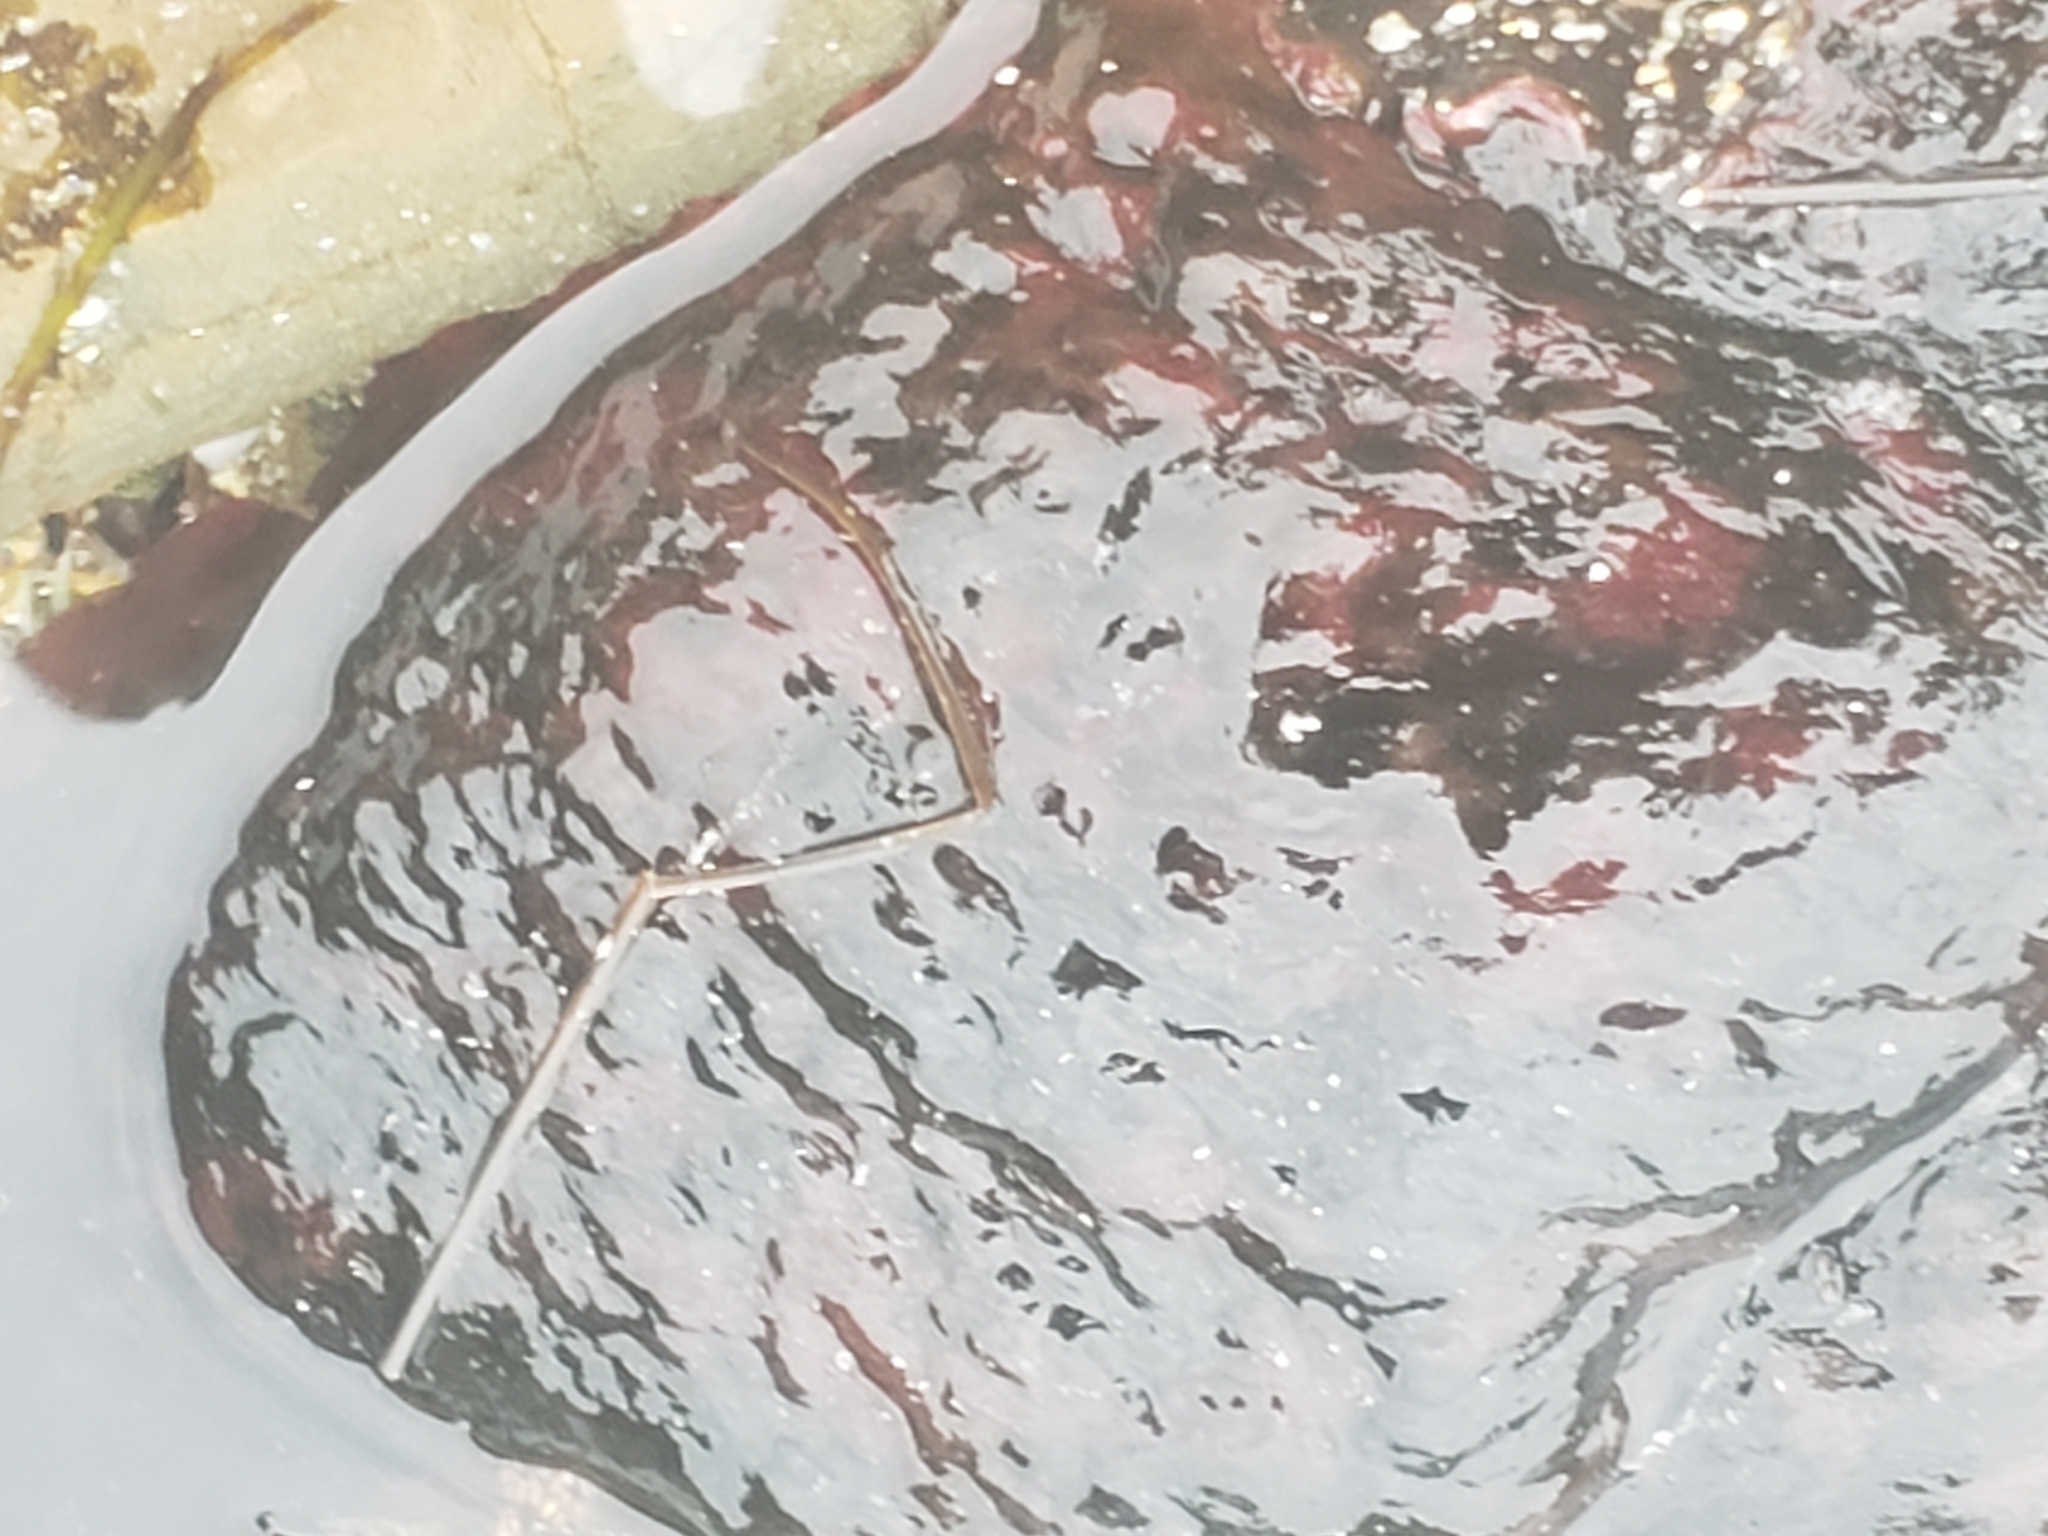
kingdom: Animalia
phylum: Mollusca
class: Gastropoda
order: Aplysiida
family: Aplysiidae
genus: Aplysia
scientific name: Aplysia californica
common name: California seahare
